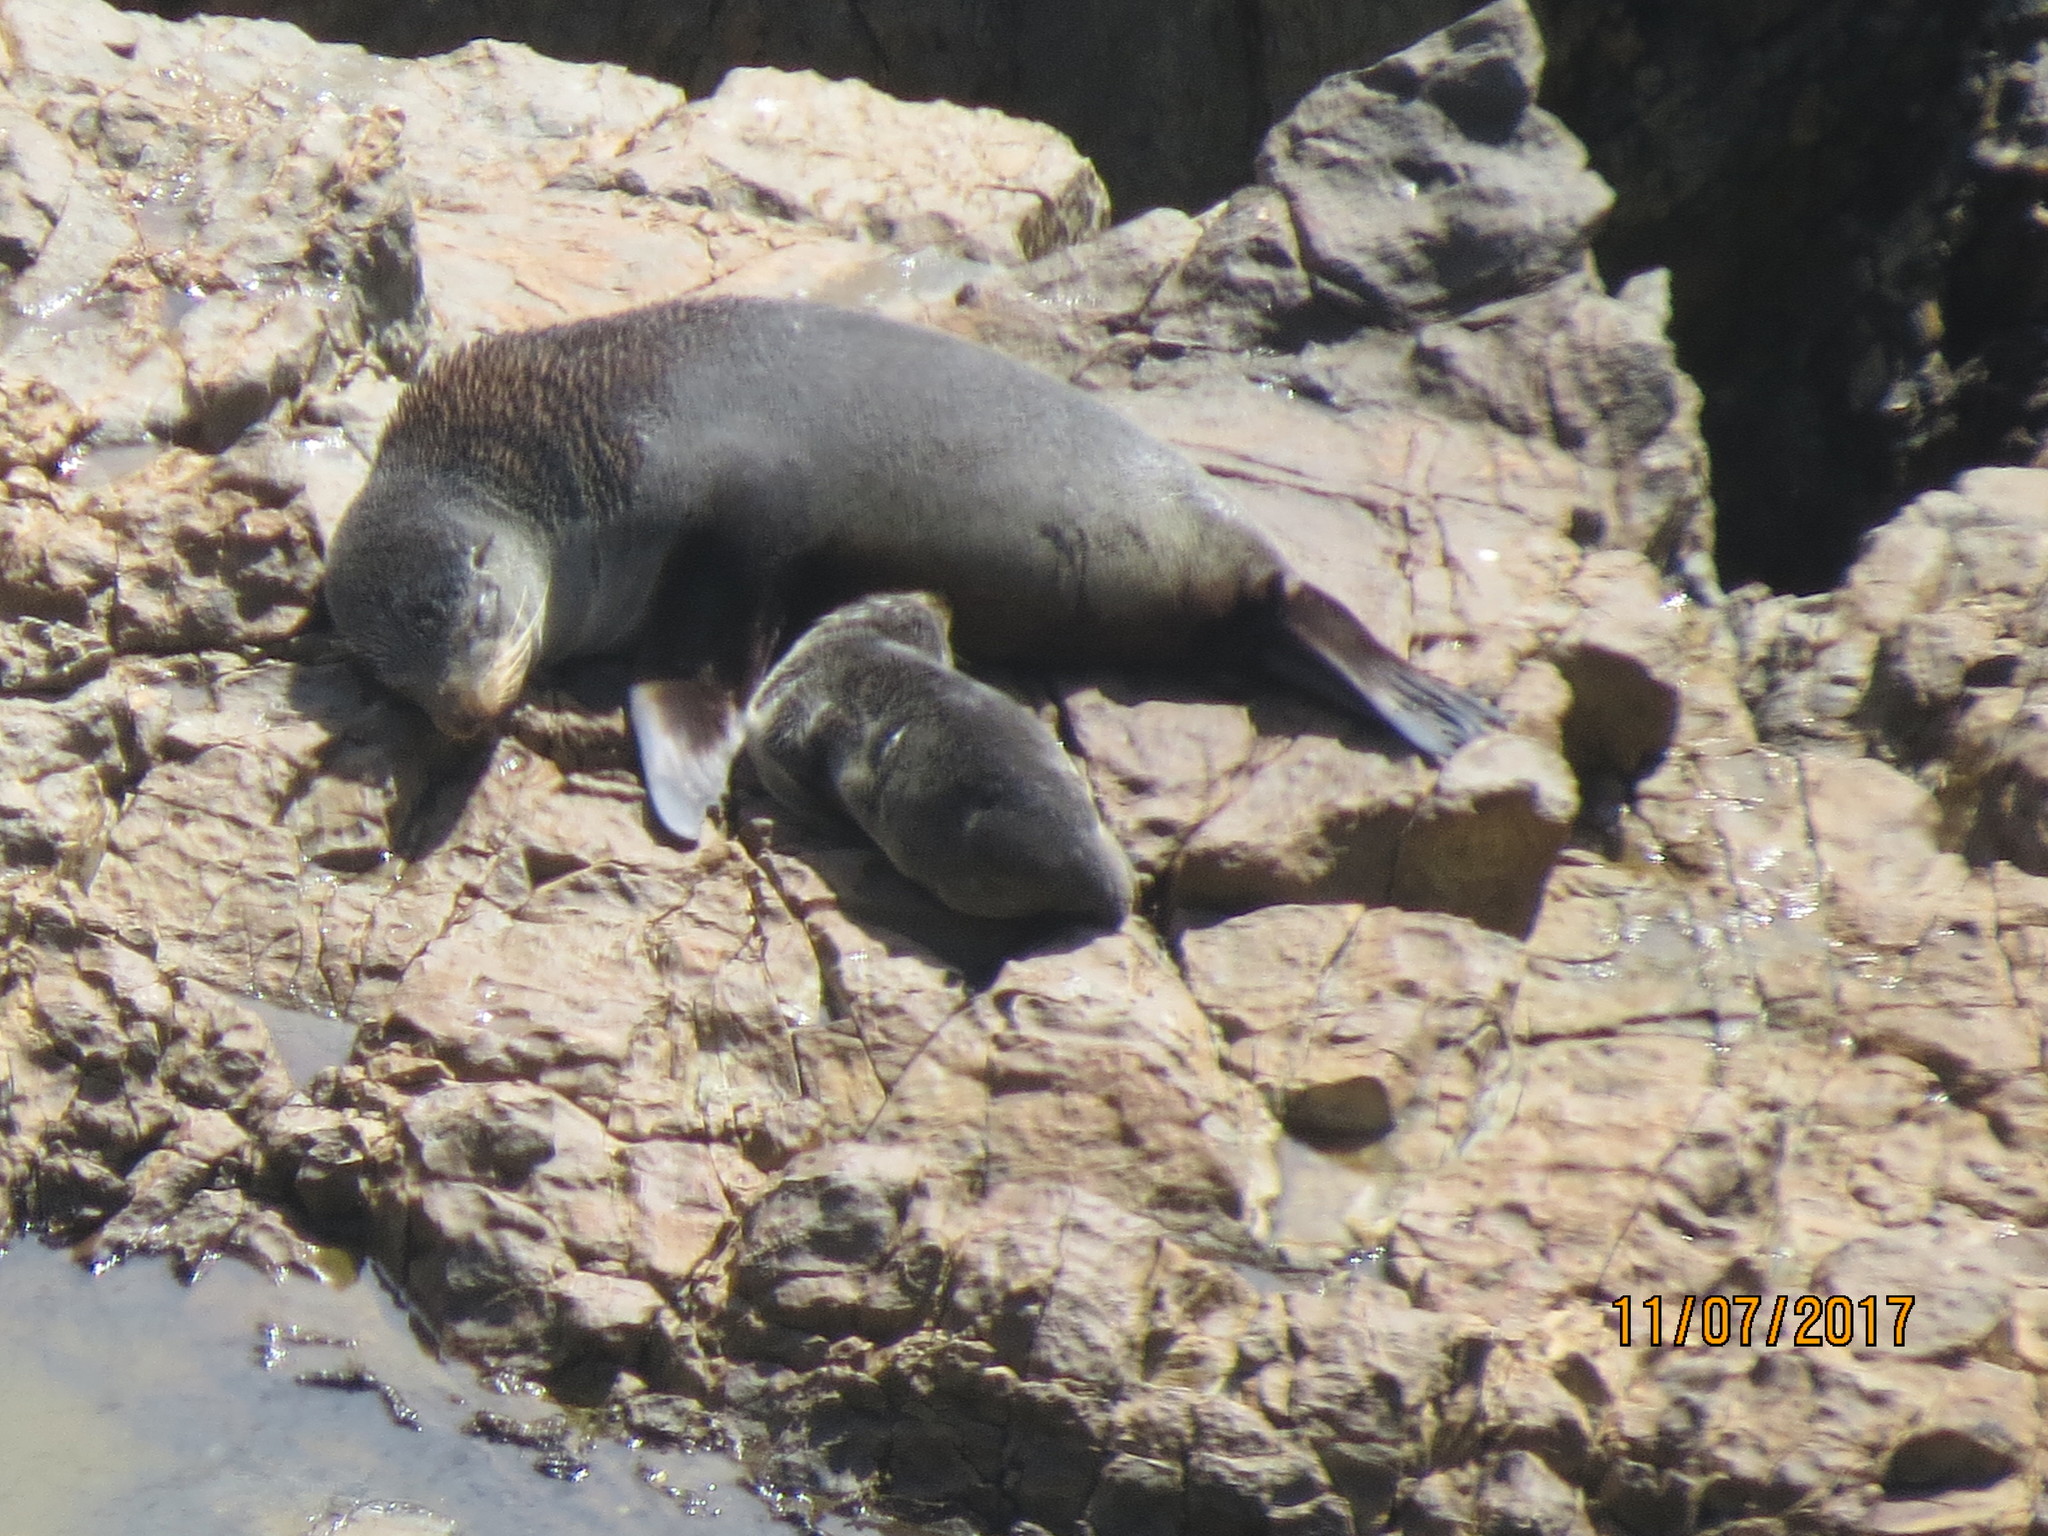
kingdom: Animalia
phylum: Chordata
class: Mammalia
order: Carnivora
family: Otariidae
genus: Arctocephalus
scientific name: Arctocephalus forsteri
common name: New zealand fur seal
